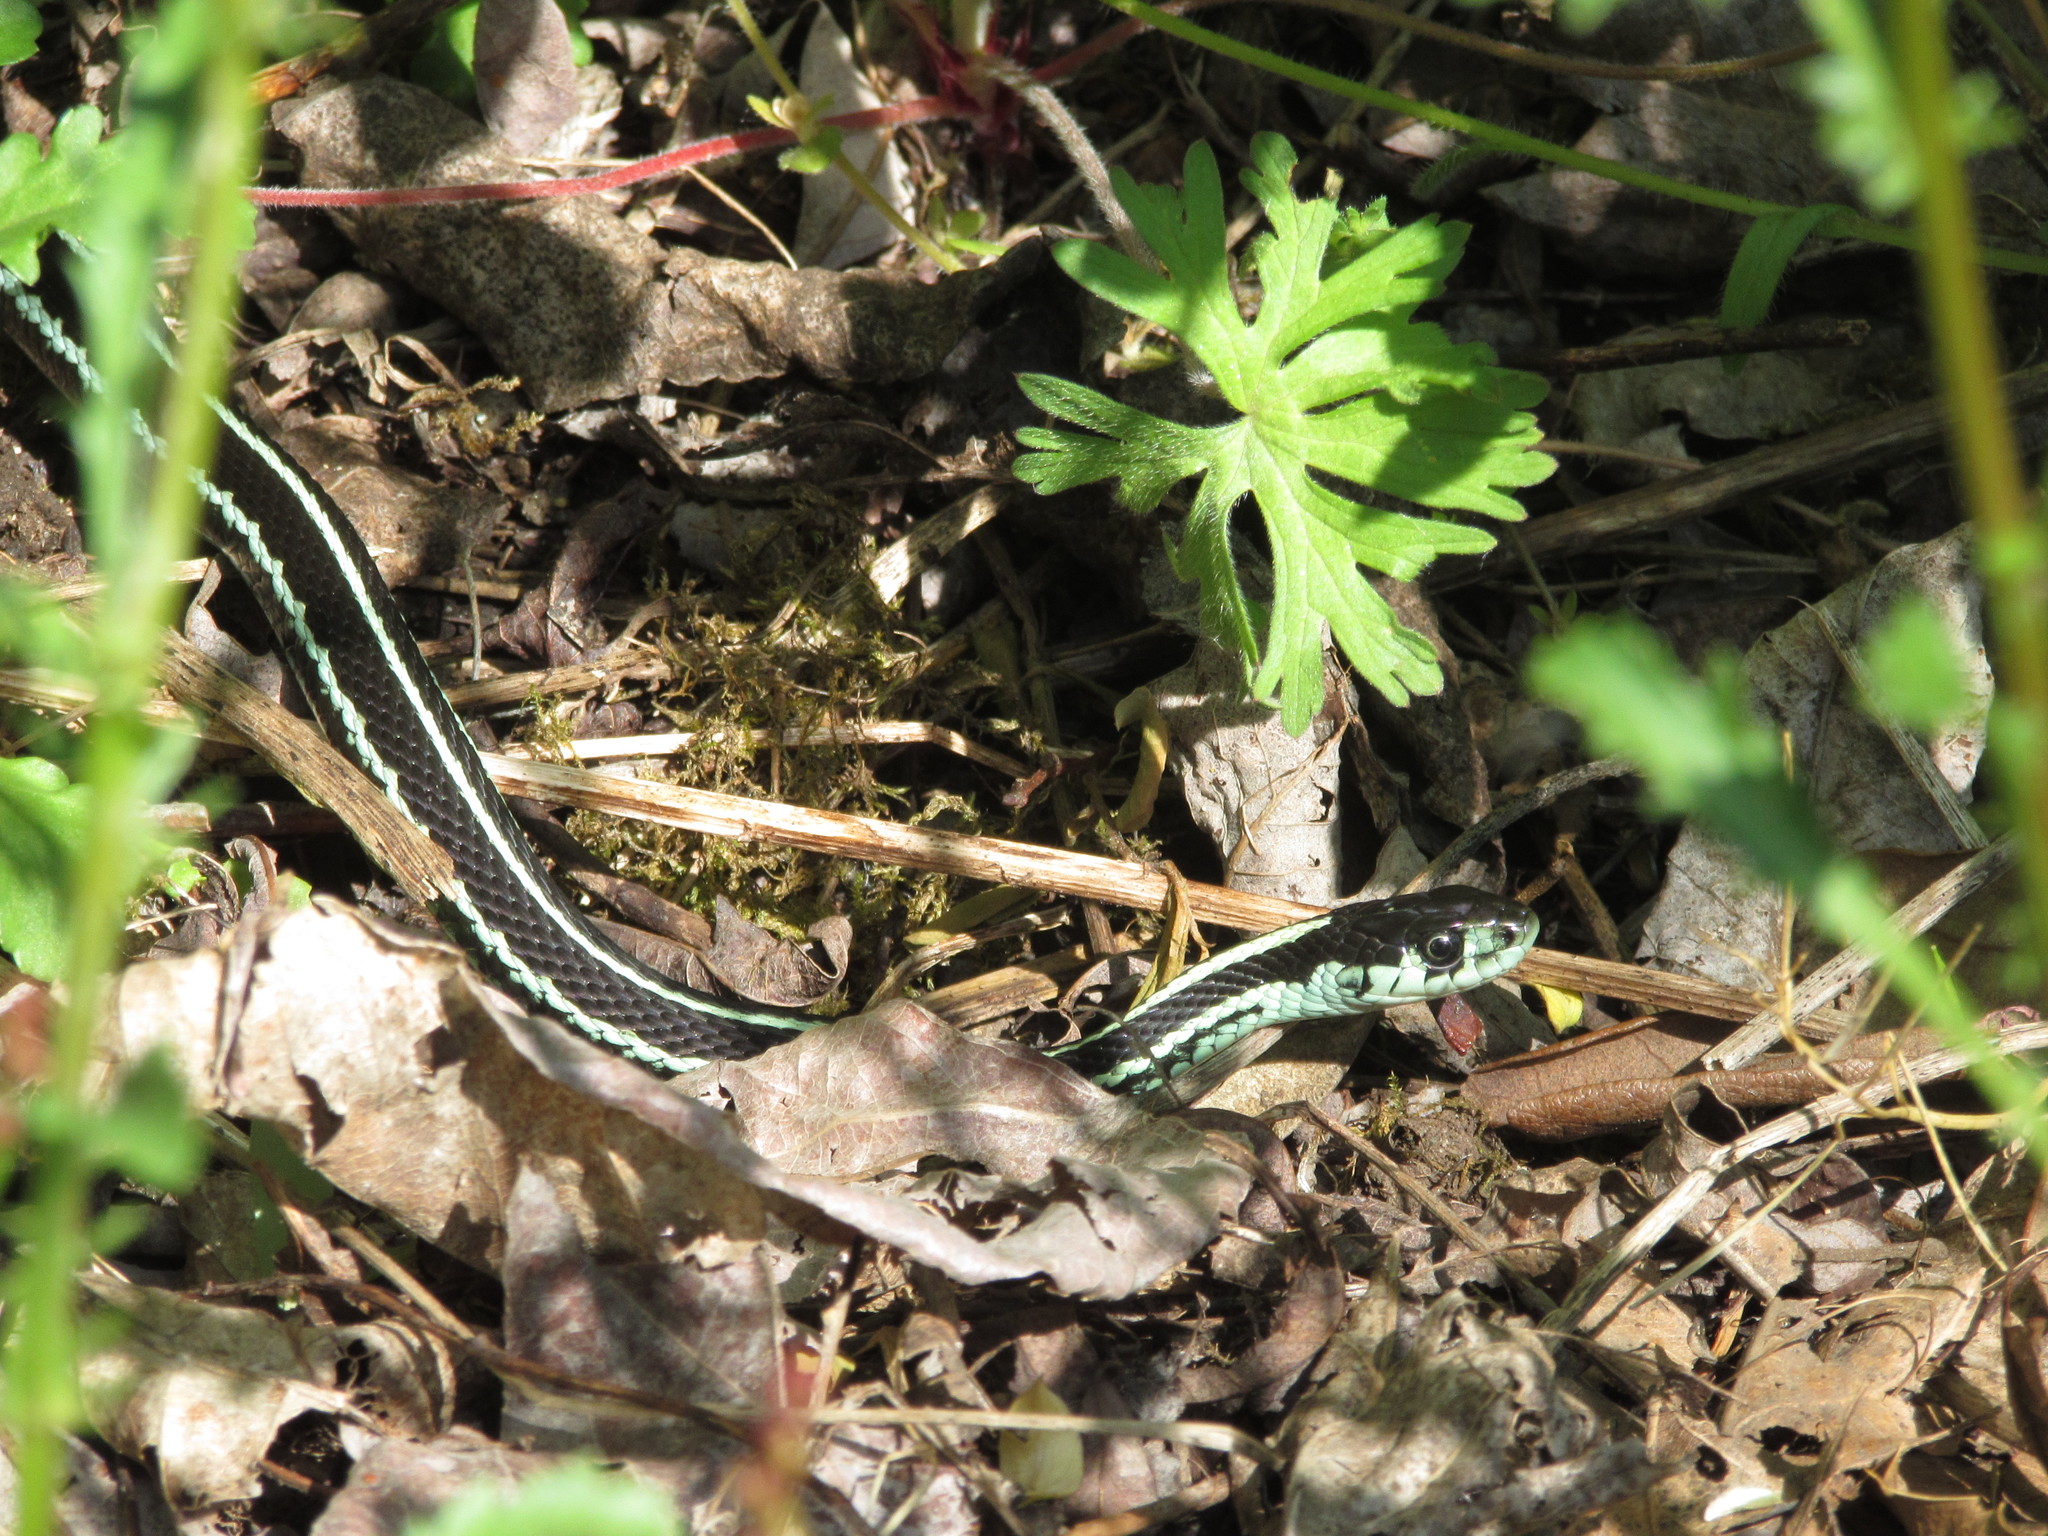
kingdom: Animalia
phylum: Chordata
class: Squamata
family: Colubridae
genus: Thamnophis
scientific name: Thamnophis sirtalis
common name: Common garter snake
